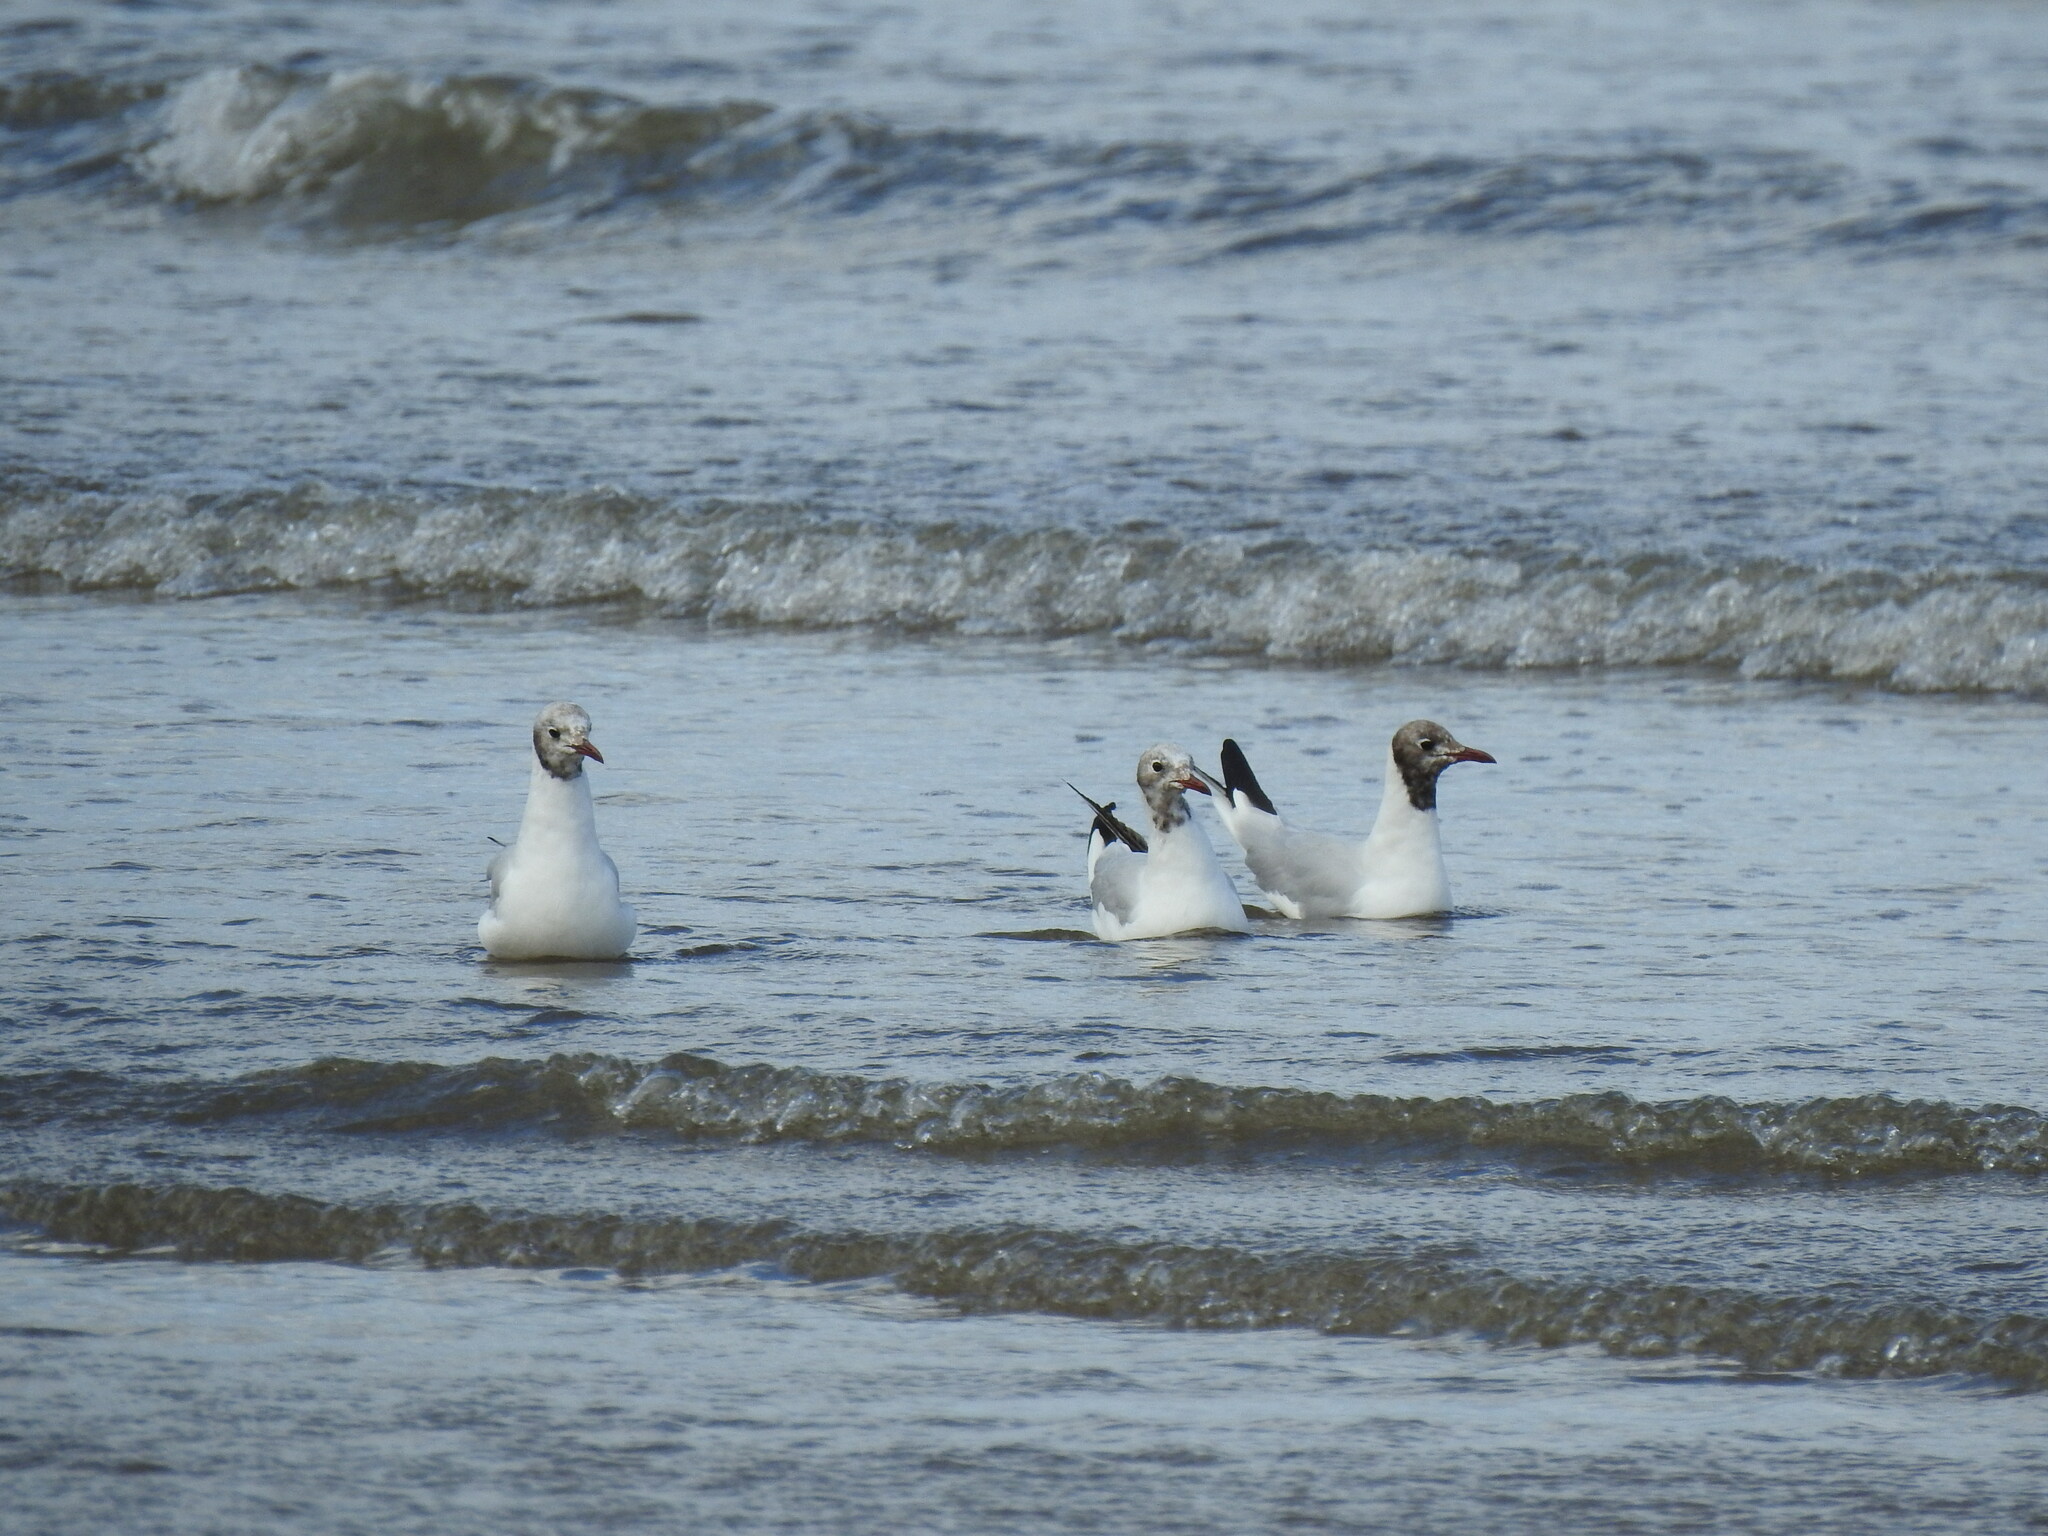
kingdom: Animalia
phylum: Chordata
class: Aves
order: Charadriiformes
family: Laridae
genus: Chroicocephalus
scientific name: Chroicocephalus ridibundus
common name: Black-headed gull
